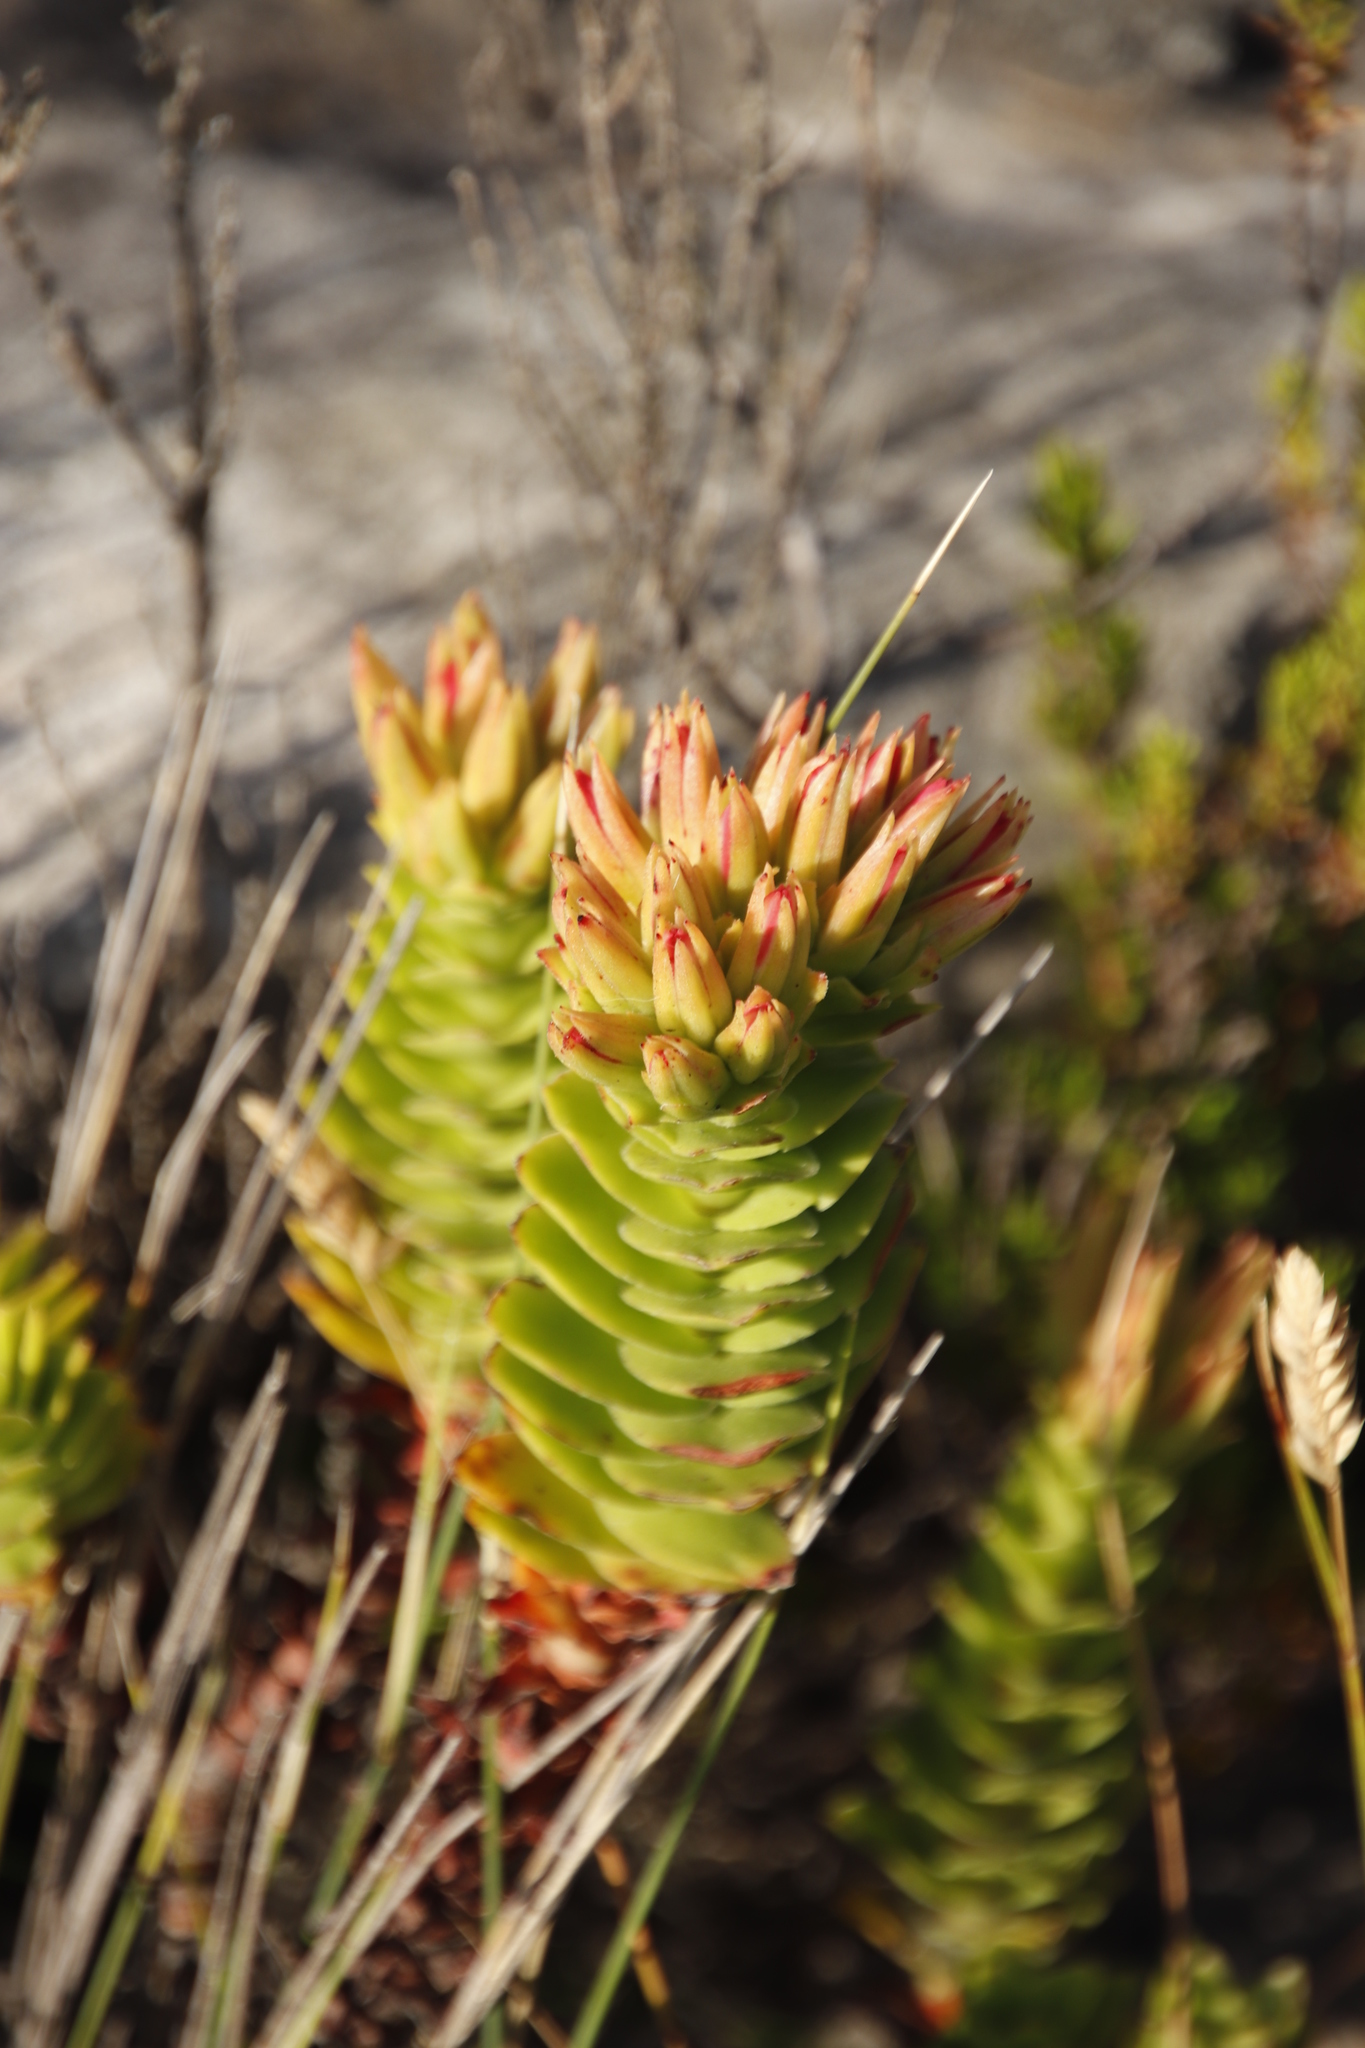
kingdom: Plantae
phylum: Tracheophyta
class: Magnoliopsida
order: Saxifragales
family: Crassulaceae
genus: Crassula
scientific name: Crassula coccinea
